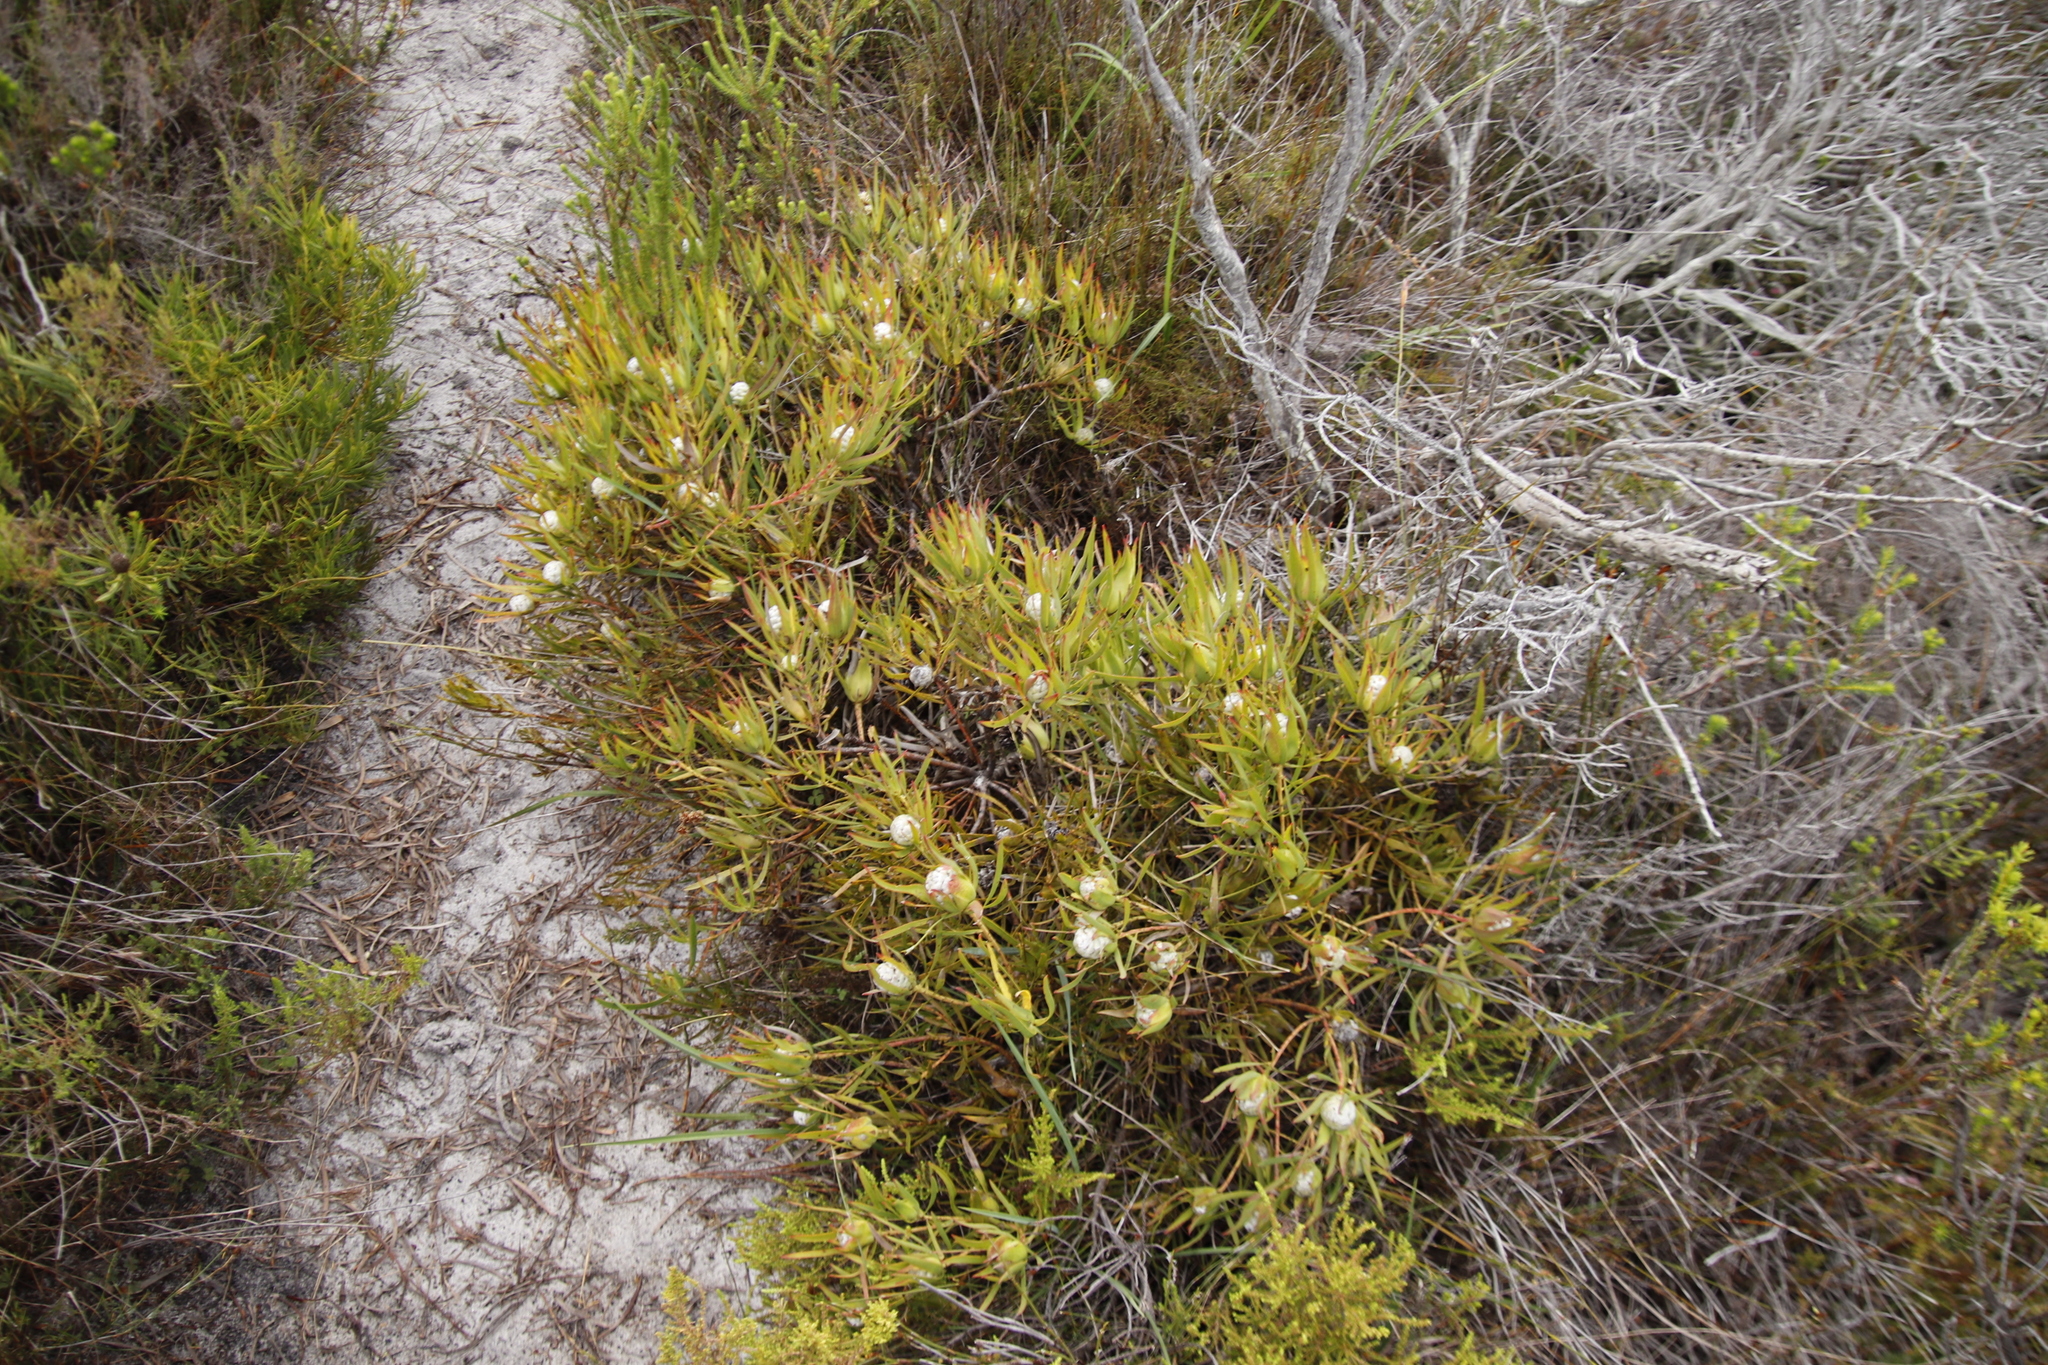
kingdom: Plantae
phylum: Tracheophyta
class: Magnoliopsida
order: Proteales
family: Proteaceae
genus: Leucadendron
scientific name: Leucadendron salignum
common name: Common sunshine conebush
